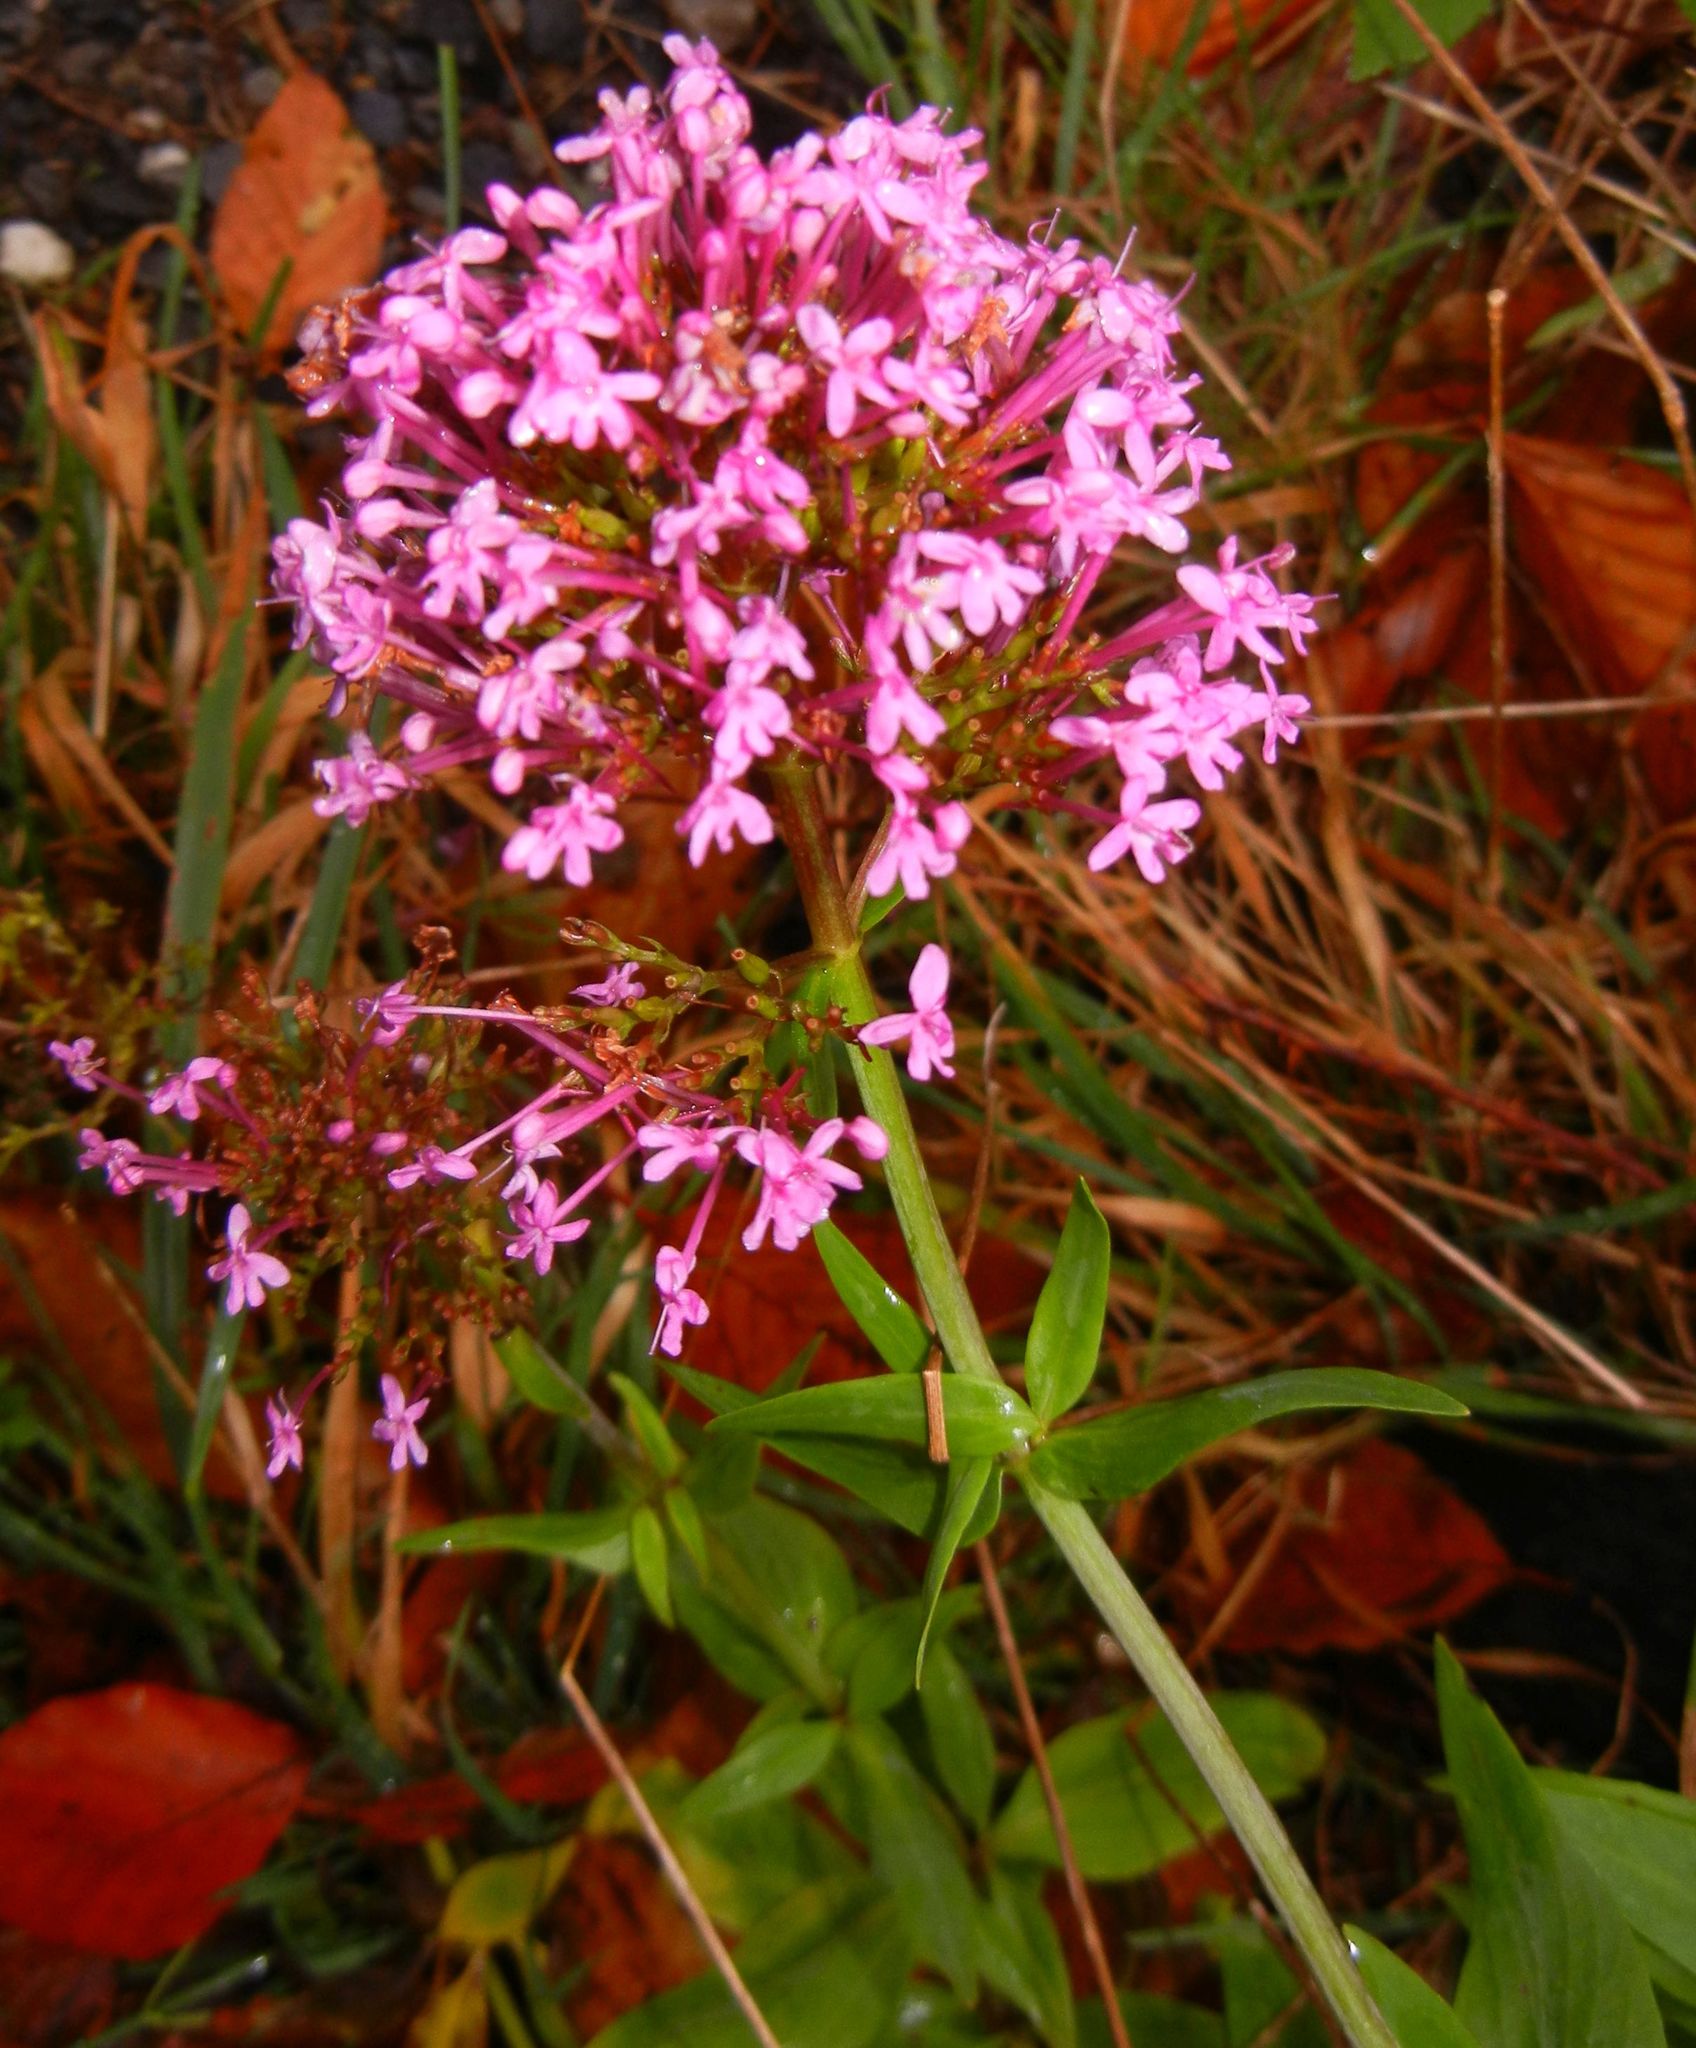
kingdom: Plantae
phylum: Tracheophyta
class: Magnoliopsida
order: Dipsacales
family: Caprifoliaceae
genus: Centranthus
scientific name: Centranthus ruber
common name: Red valerian
